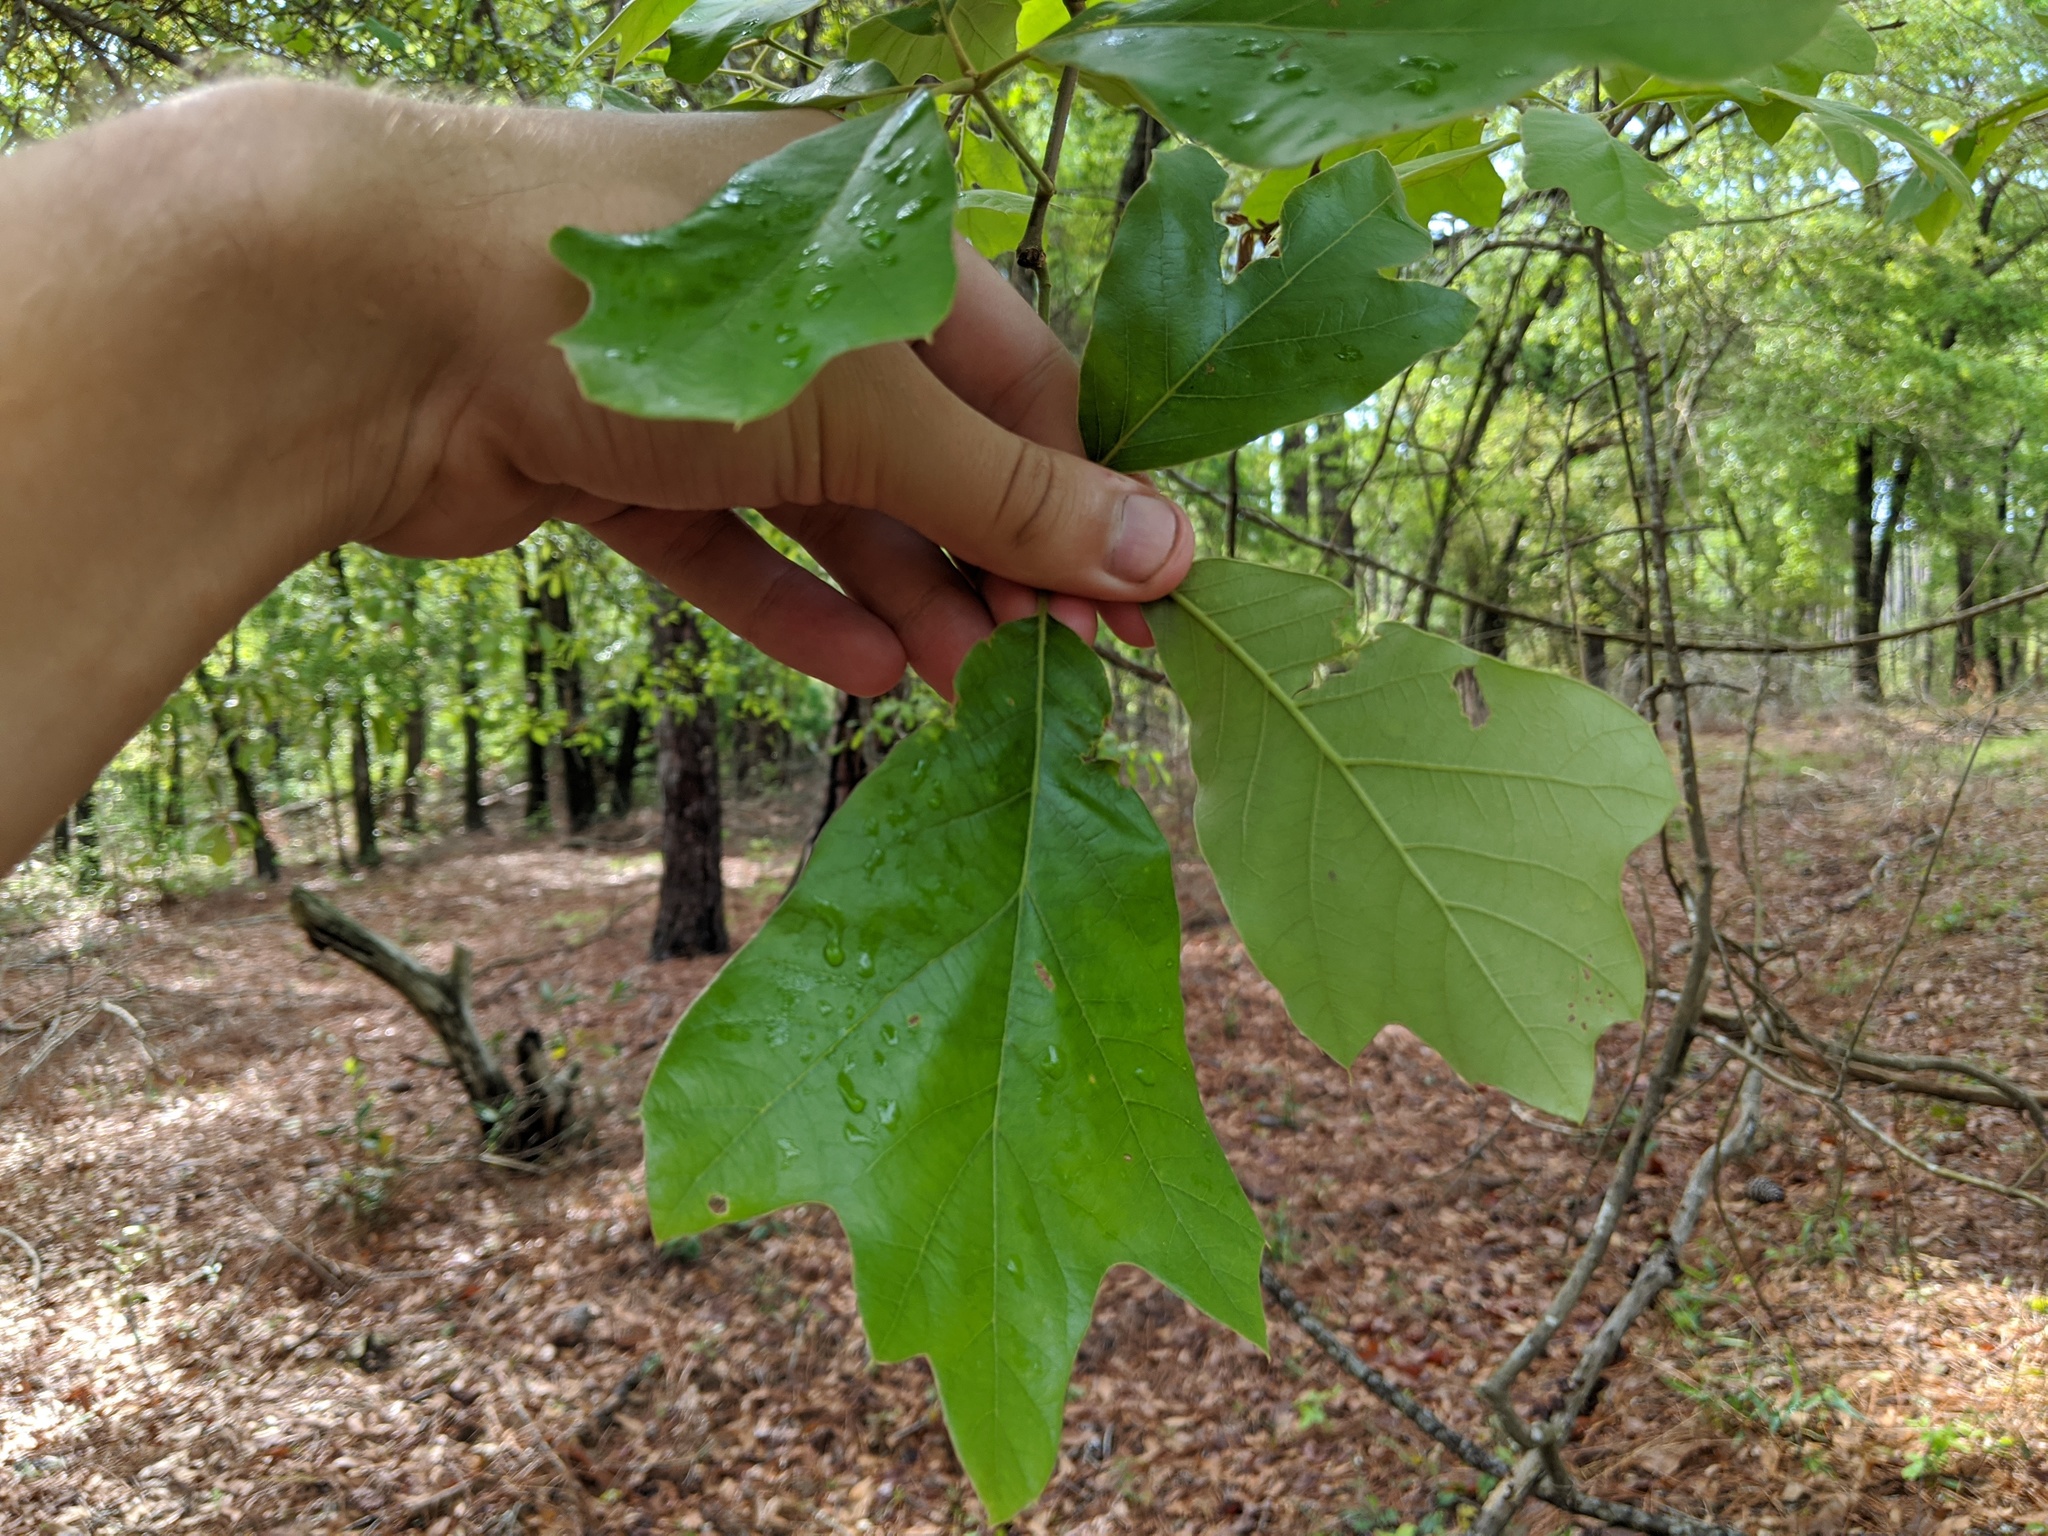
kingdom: Plantae
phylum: Tracheophyta
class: Magnoliopsida
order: Fagales
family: Fagaceae
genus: Quercus
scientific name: Quercus falcata
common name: Southern red oak
